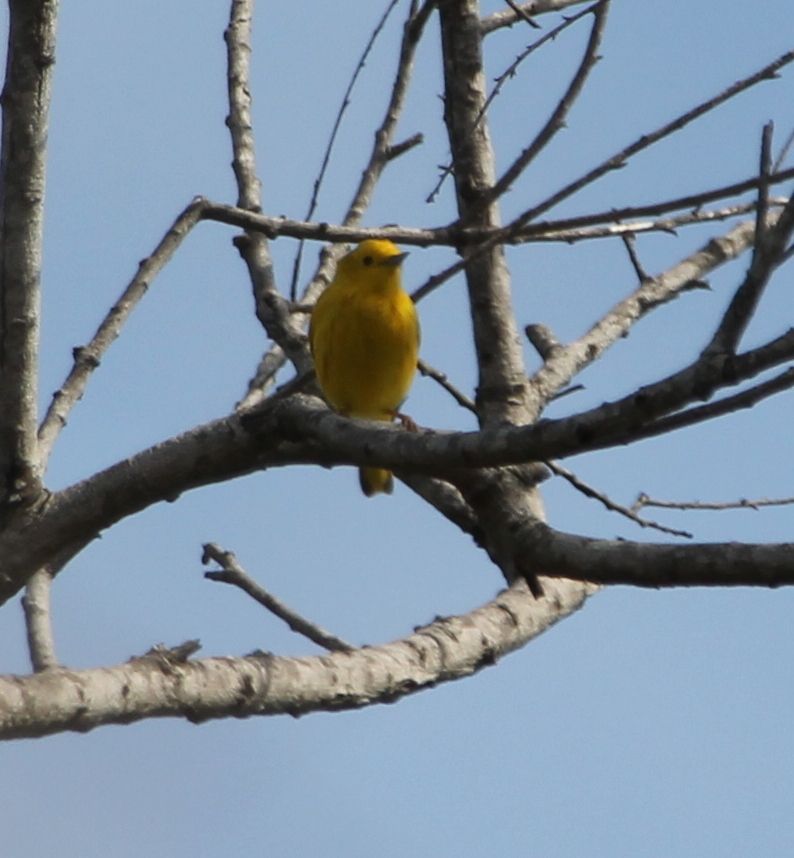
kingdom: Animalia
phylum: Chordata
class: Aves
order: Passeriformes
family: Parulidae
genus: Setophaga
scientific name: Setophaga petechia
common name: Yellow warbler
